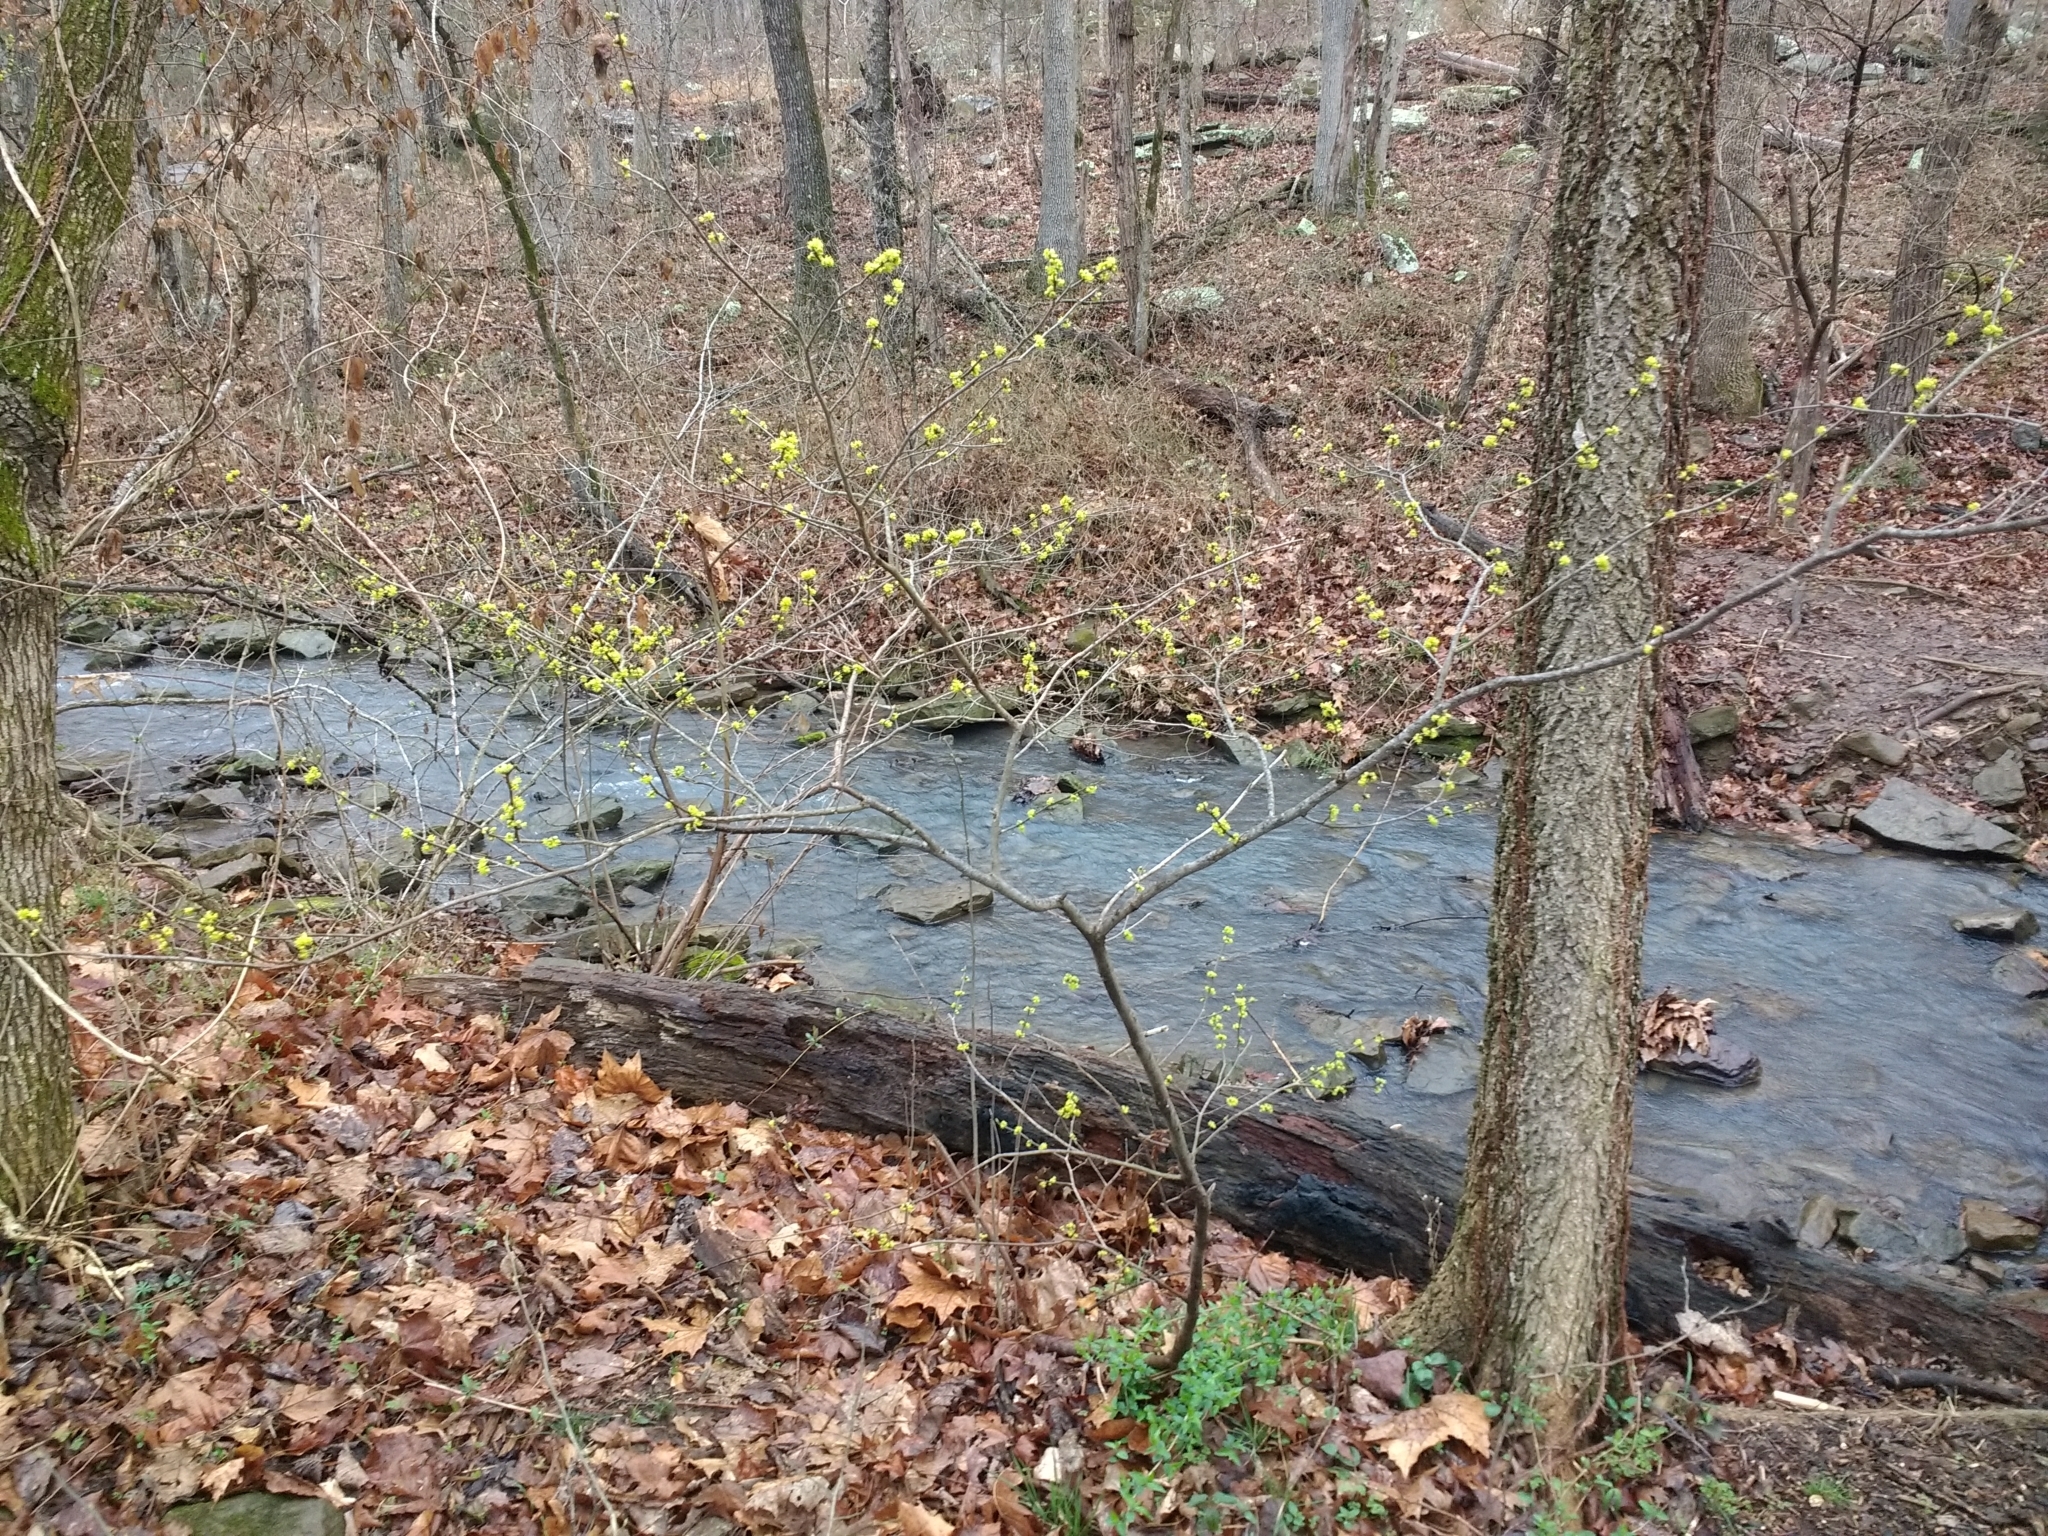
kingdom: Plantae
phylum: Tracheophyta
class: Magnoliopsida
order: Laurales
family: Lauraceae
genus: Lindera
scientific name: Lindera benzoin
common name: Spicebush
